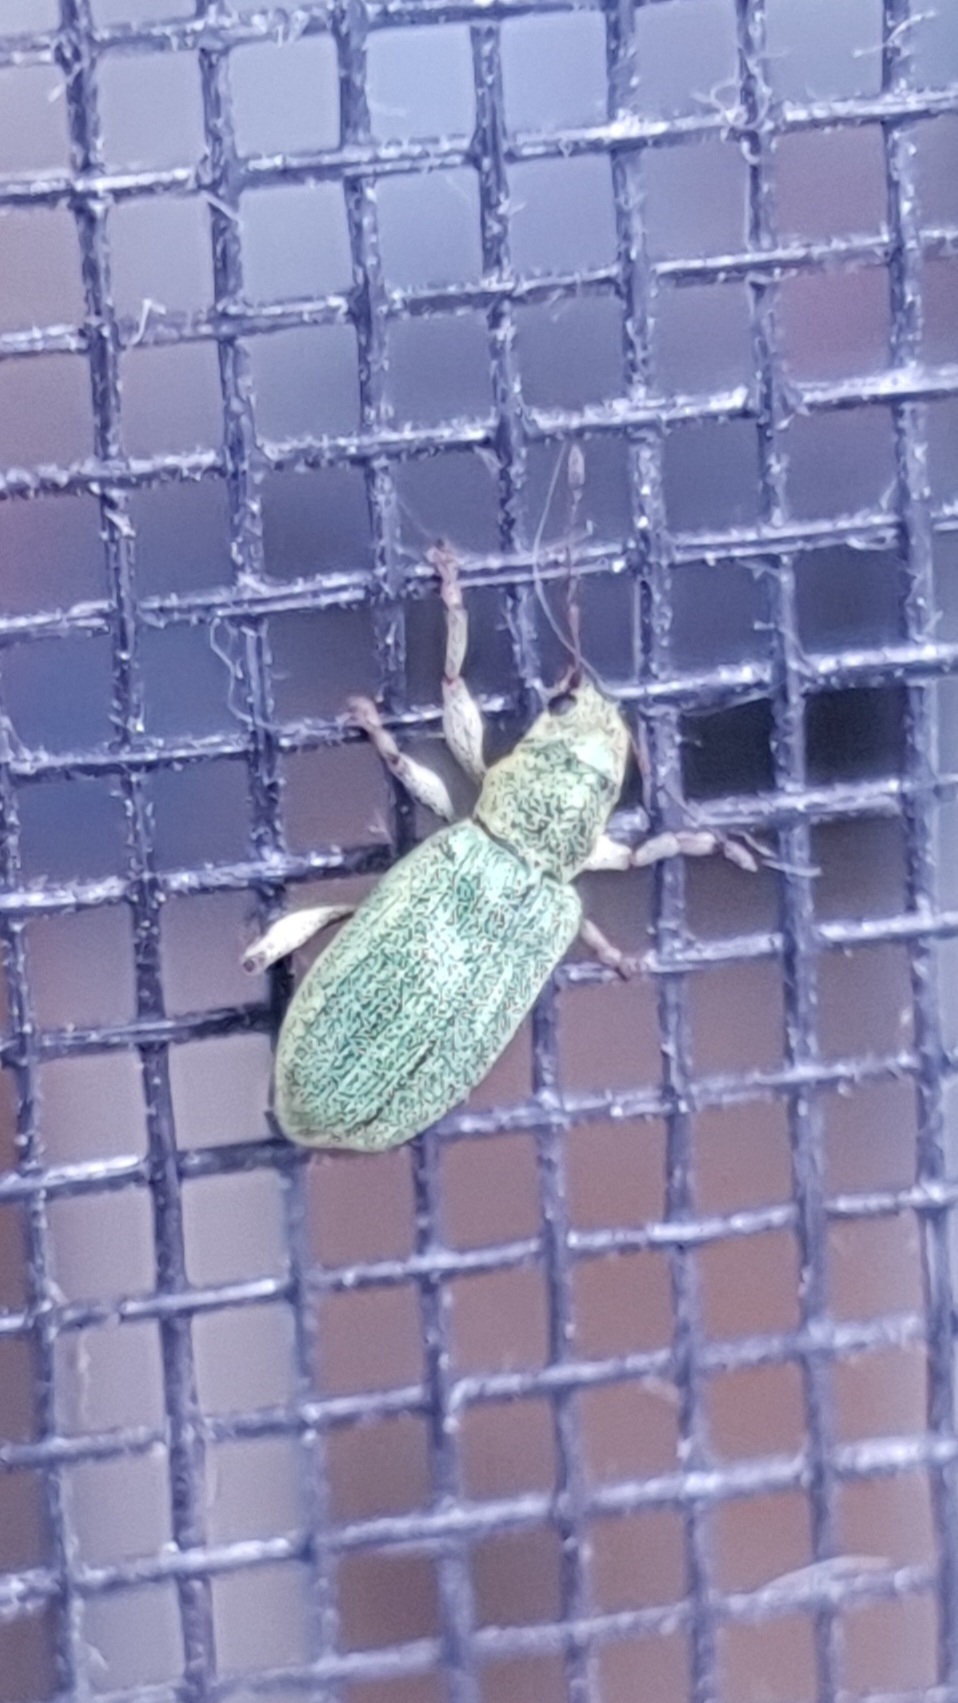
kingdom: Animalia
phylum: Arthropoda
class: Insecta
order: Coleoptera
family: Curculionidae
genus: Pachyrhinus
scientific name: Pachyrhinus lethierryi
